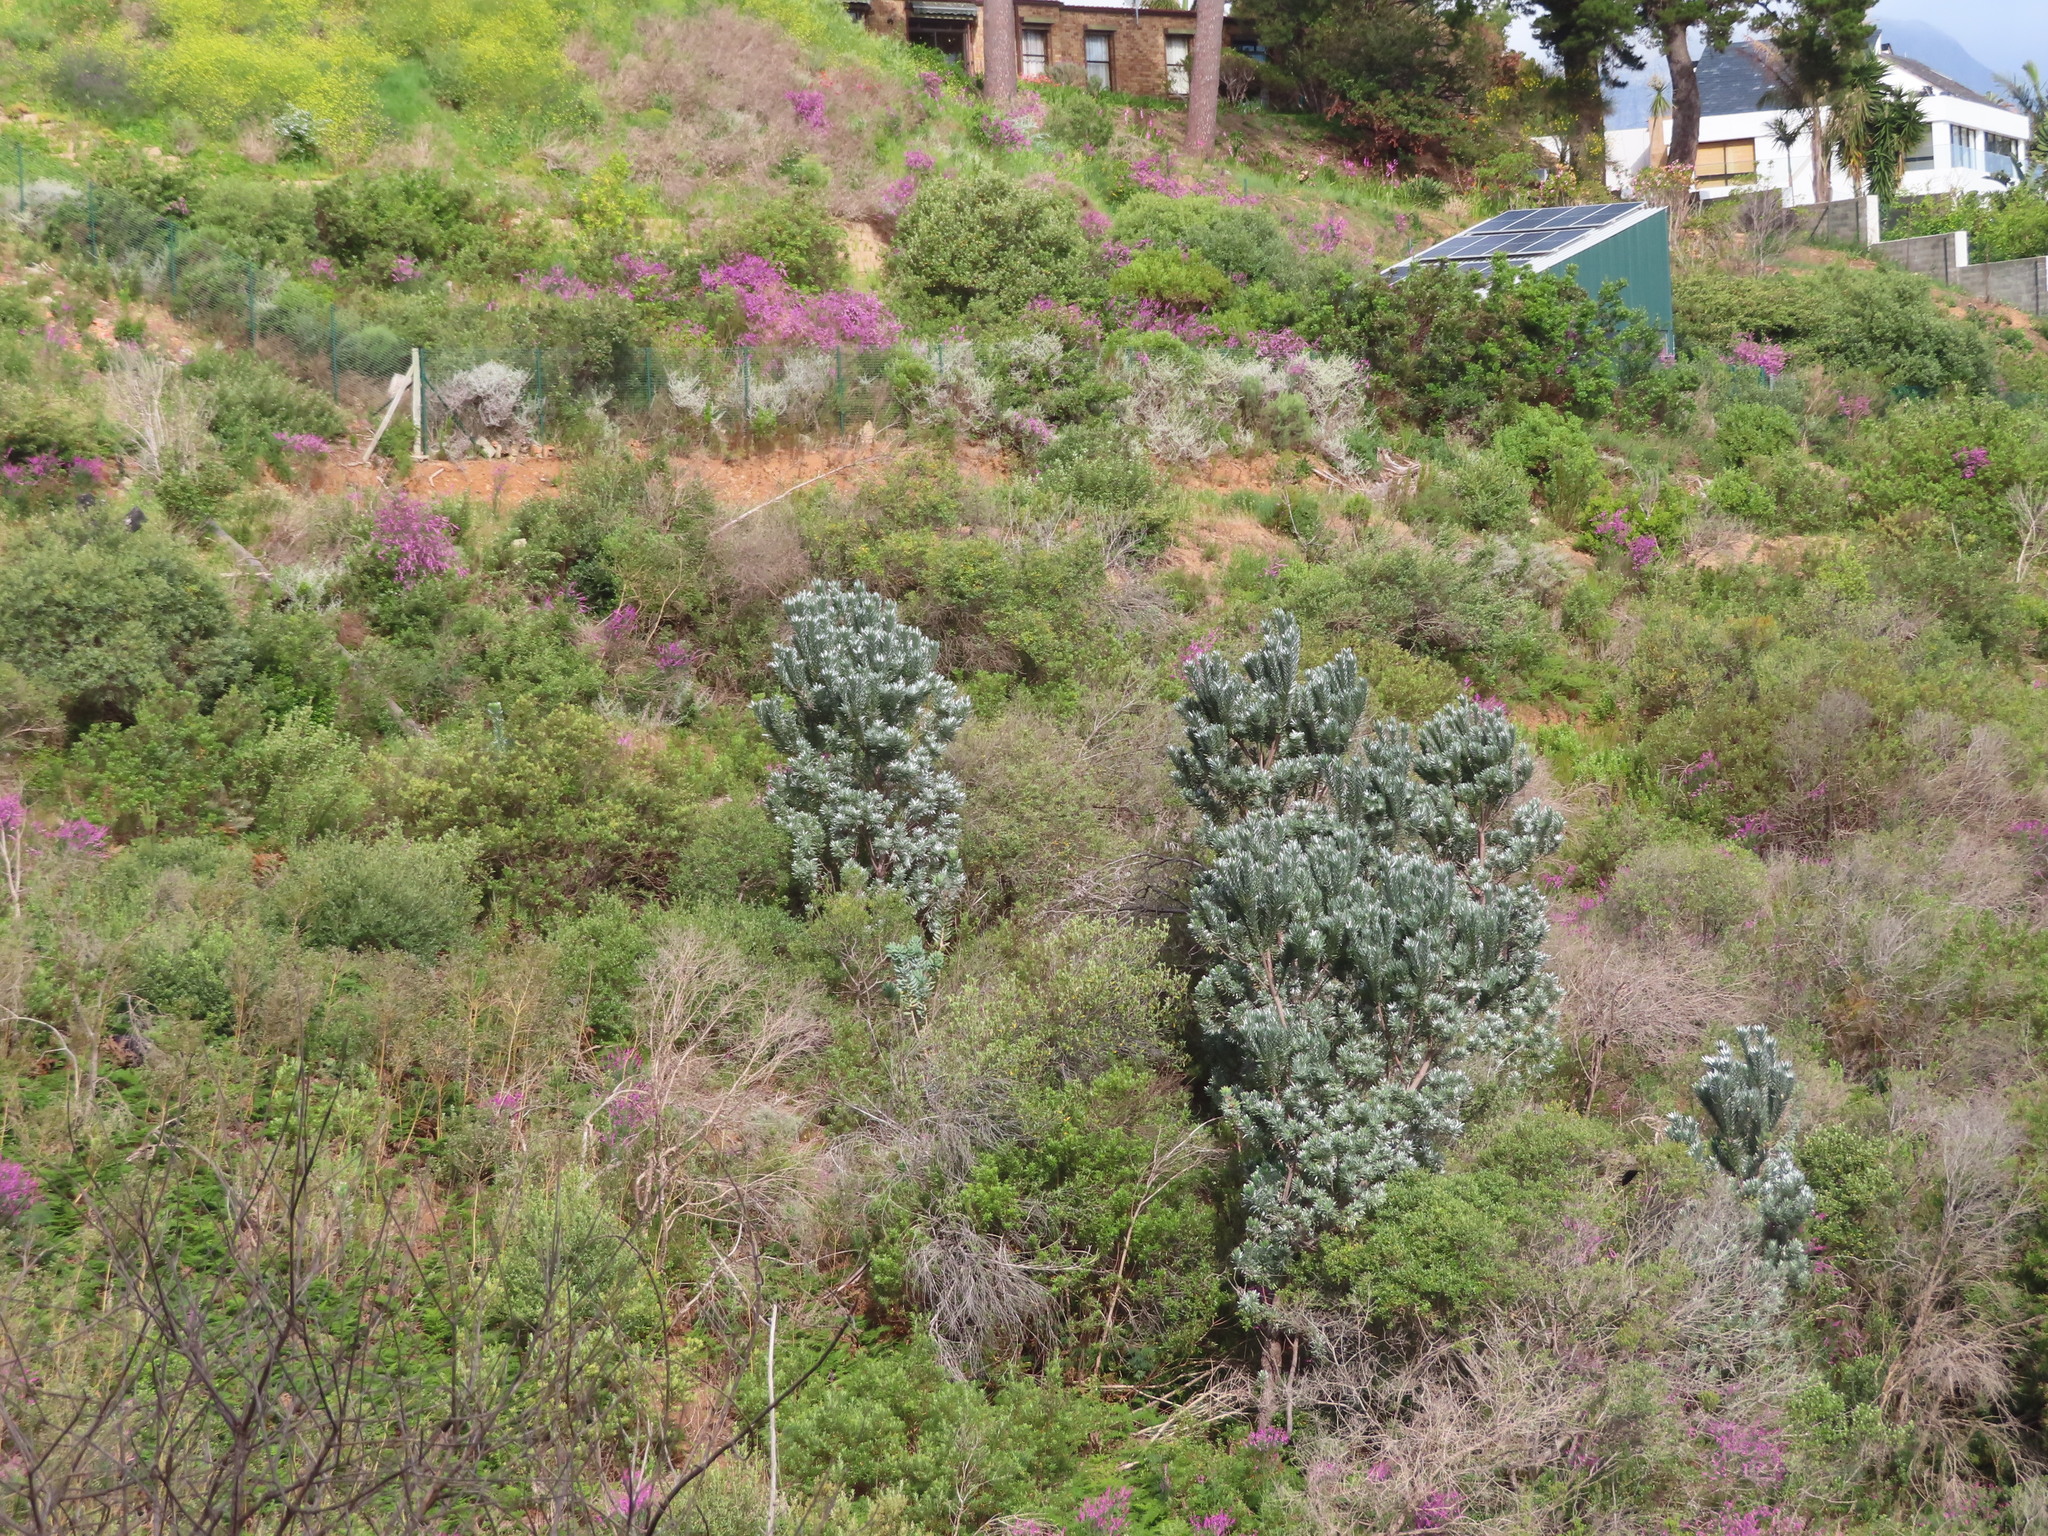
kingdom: Plantae
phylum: Tracheophyta
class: Magnoliopsida
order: Proteales
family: Proteaceae
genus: Leucadendron
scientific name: Leucadendron argenteum
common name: Cape silver tree
